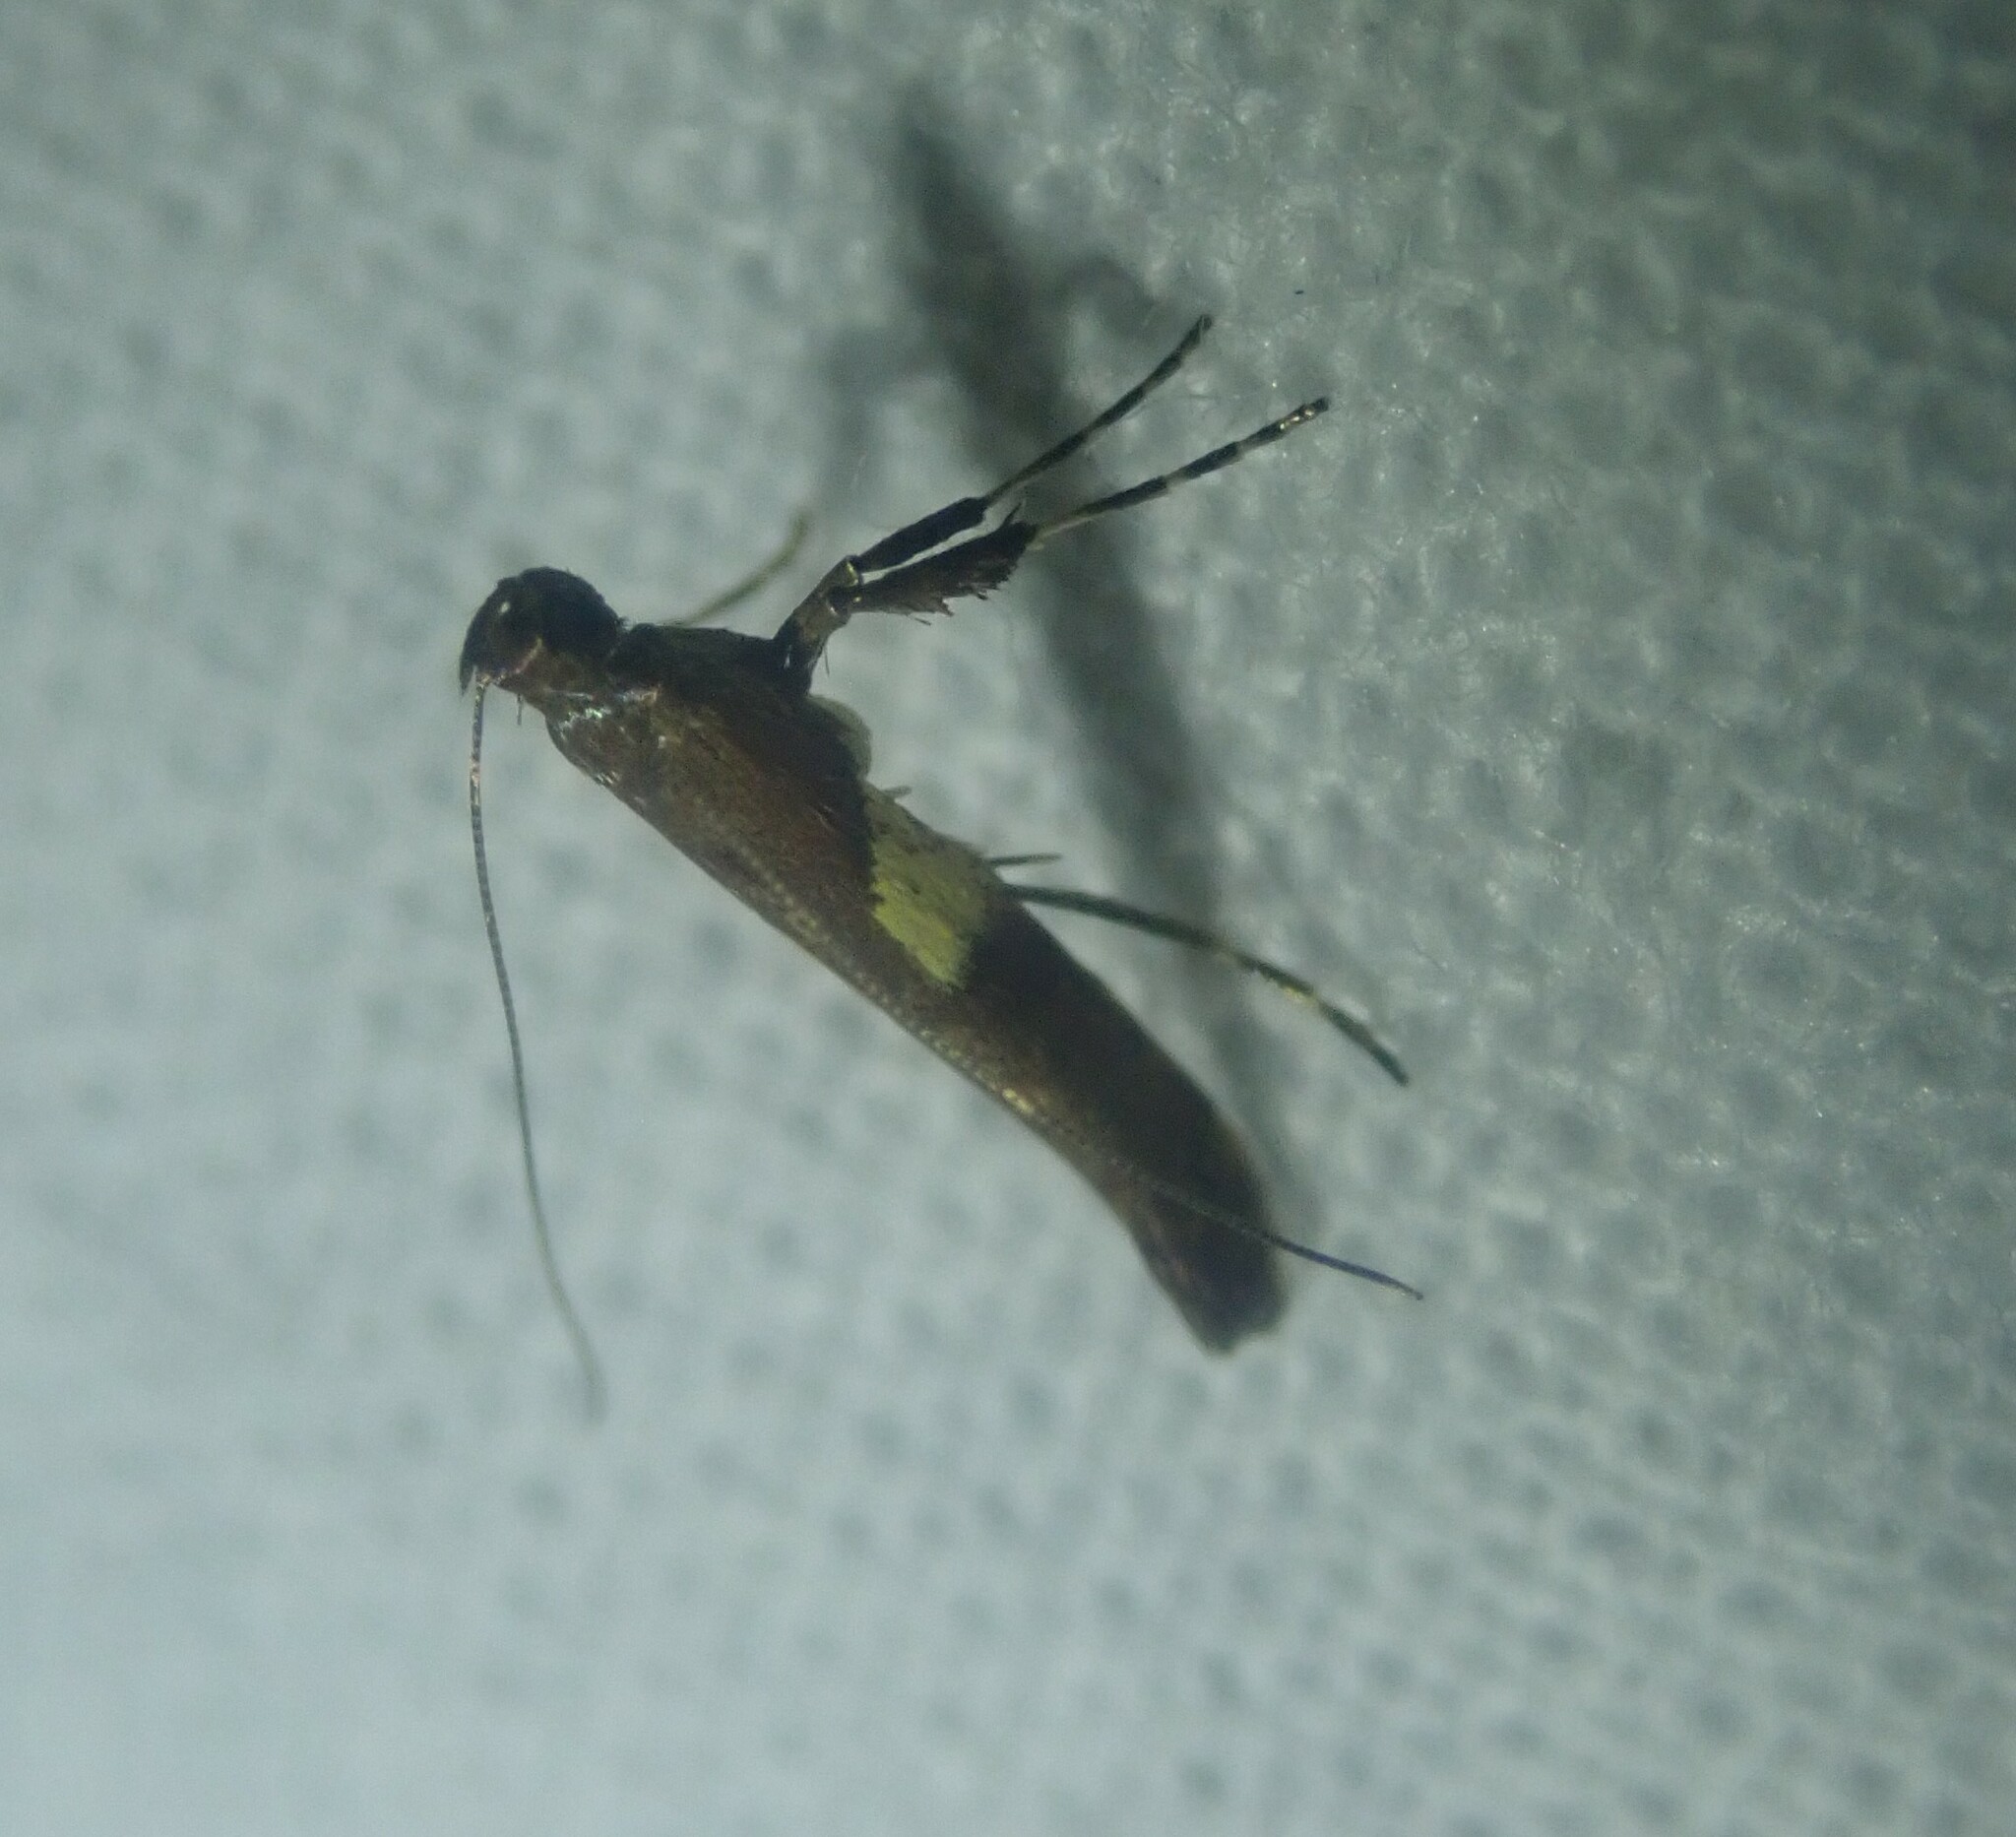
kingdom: Animalia
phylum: Arthropoda
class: Insecta
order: Lepidoptera
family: Gracillariidae
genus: Caloptilia
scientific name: Caloptilia semifascia
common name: Maple slender
